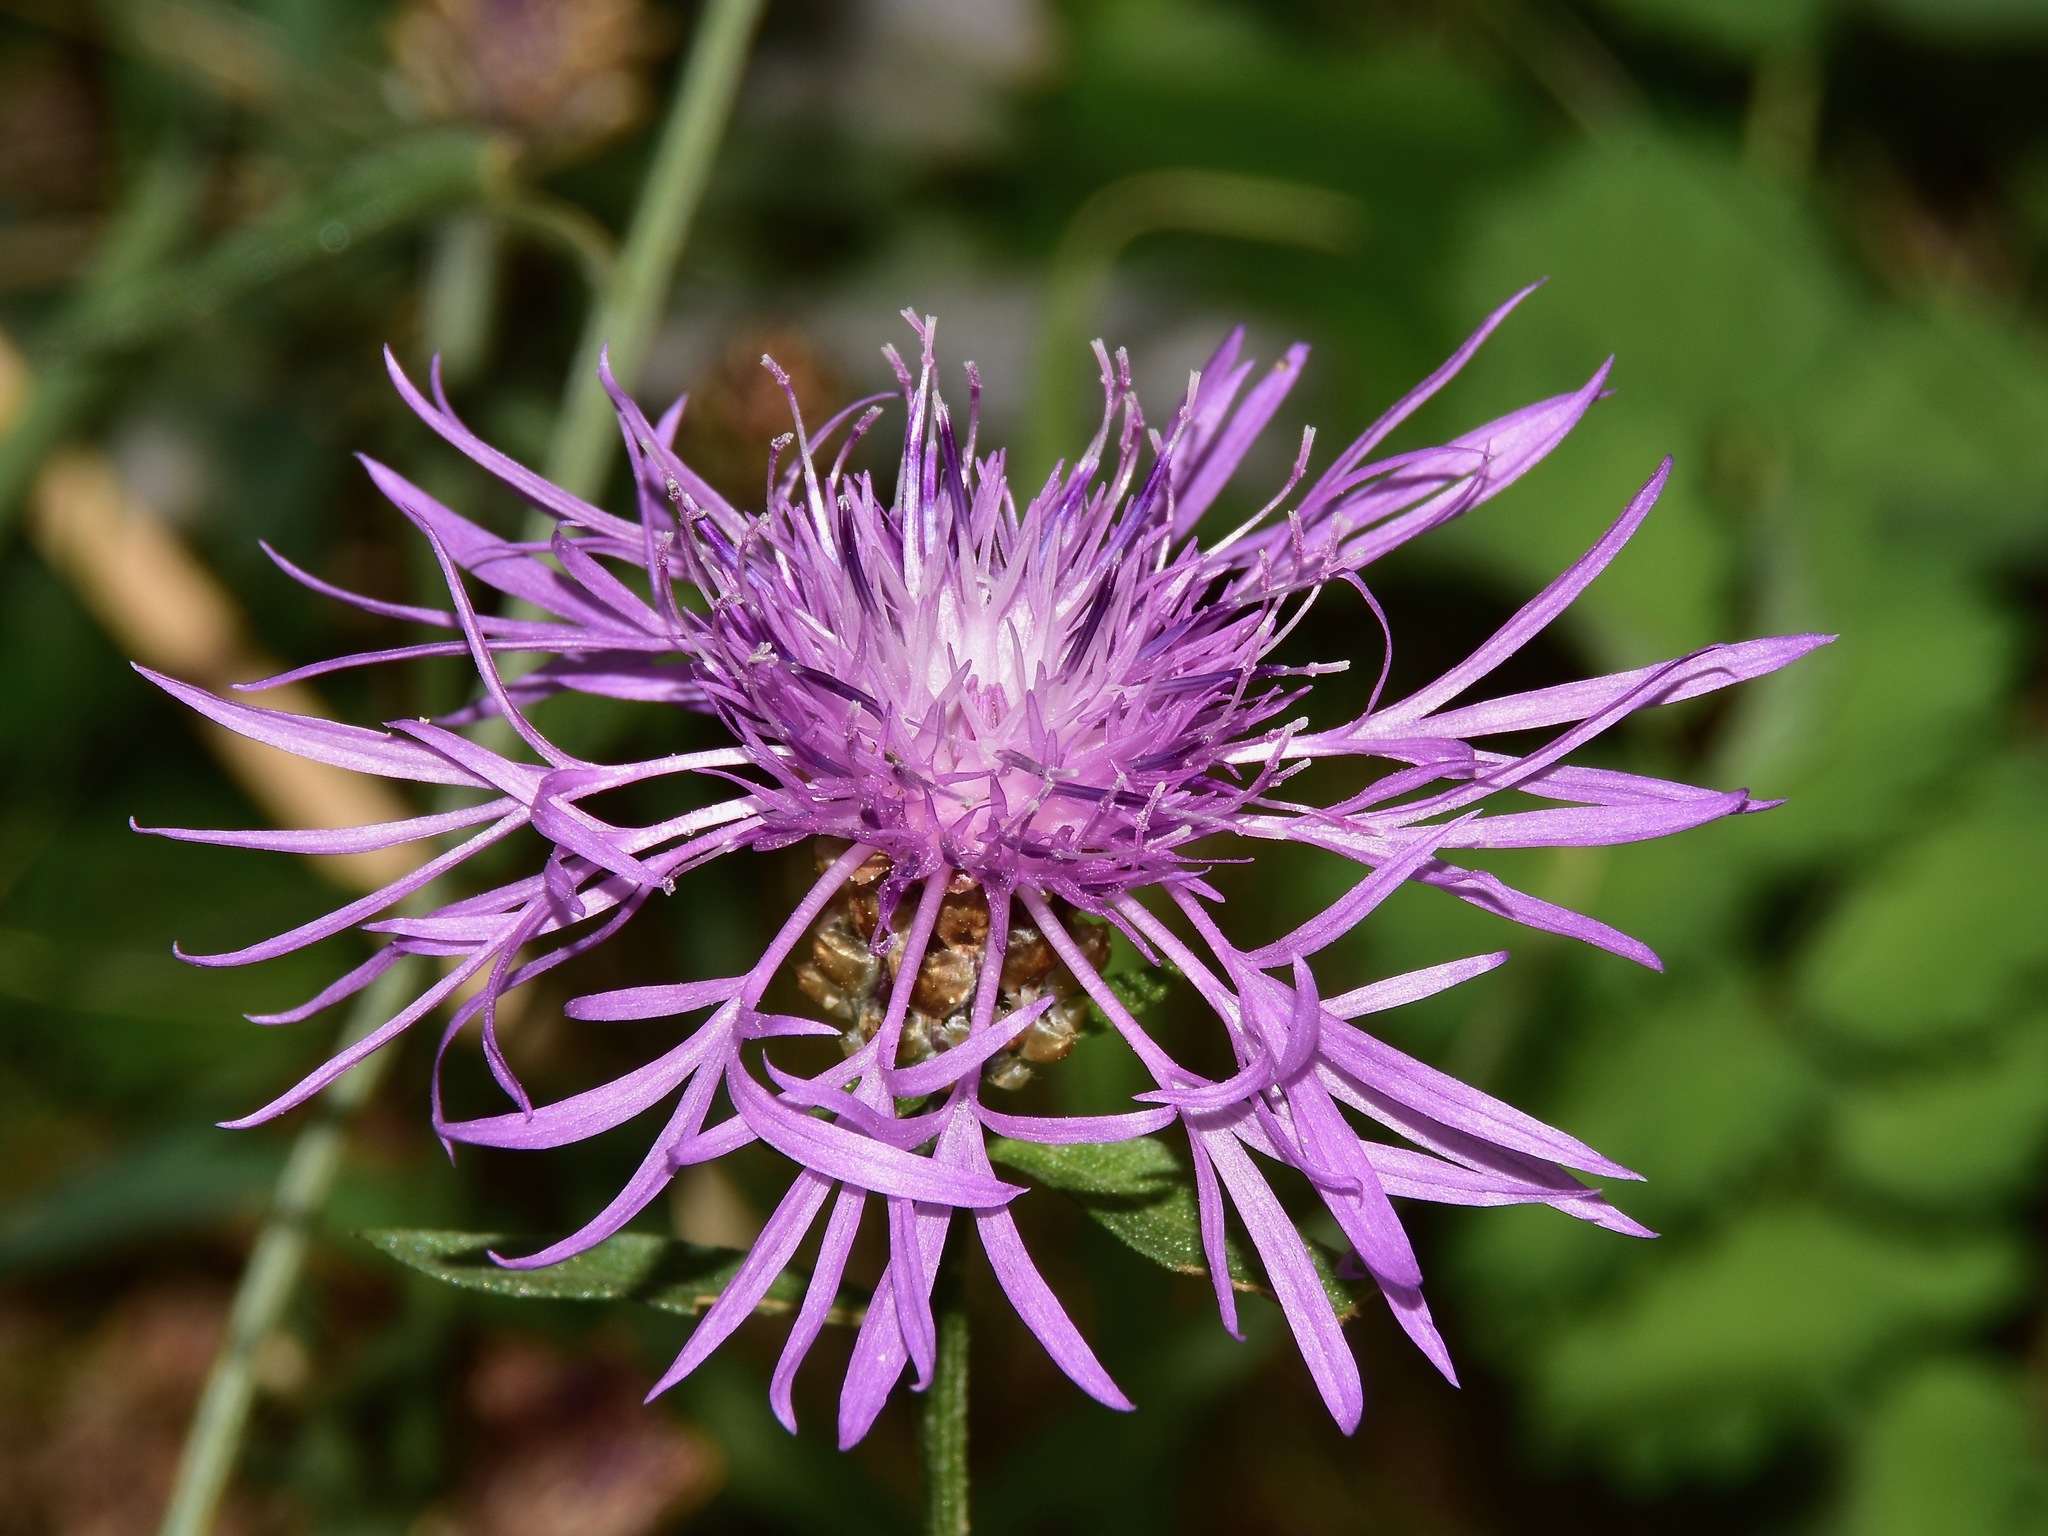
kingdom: Plantae
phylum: Tracheophyta
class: Magnoliopsida
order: Asterales
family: Asteraceae
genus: Centaurea
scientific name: Centaurea jacea
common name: Brown knapweed
